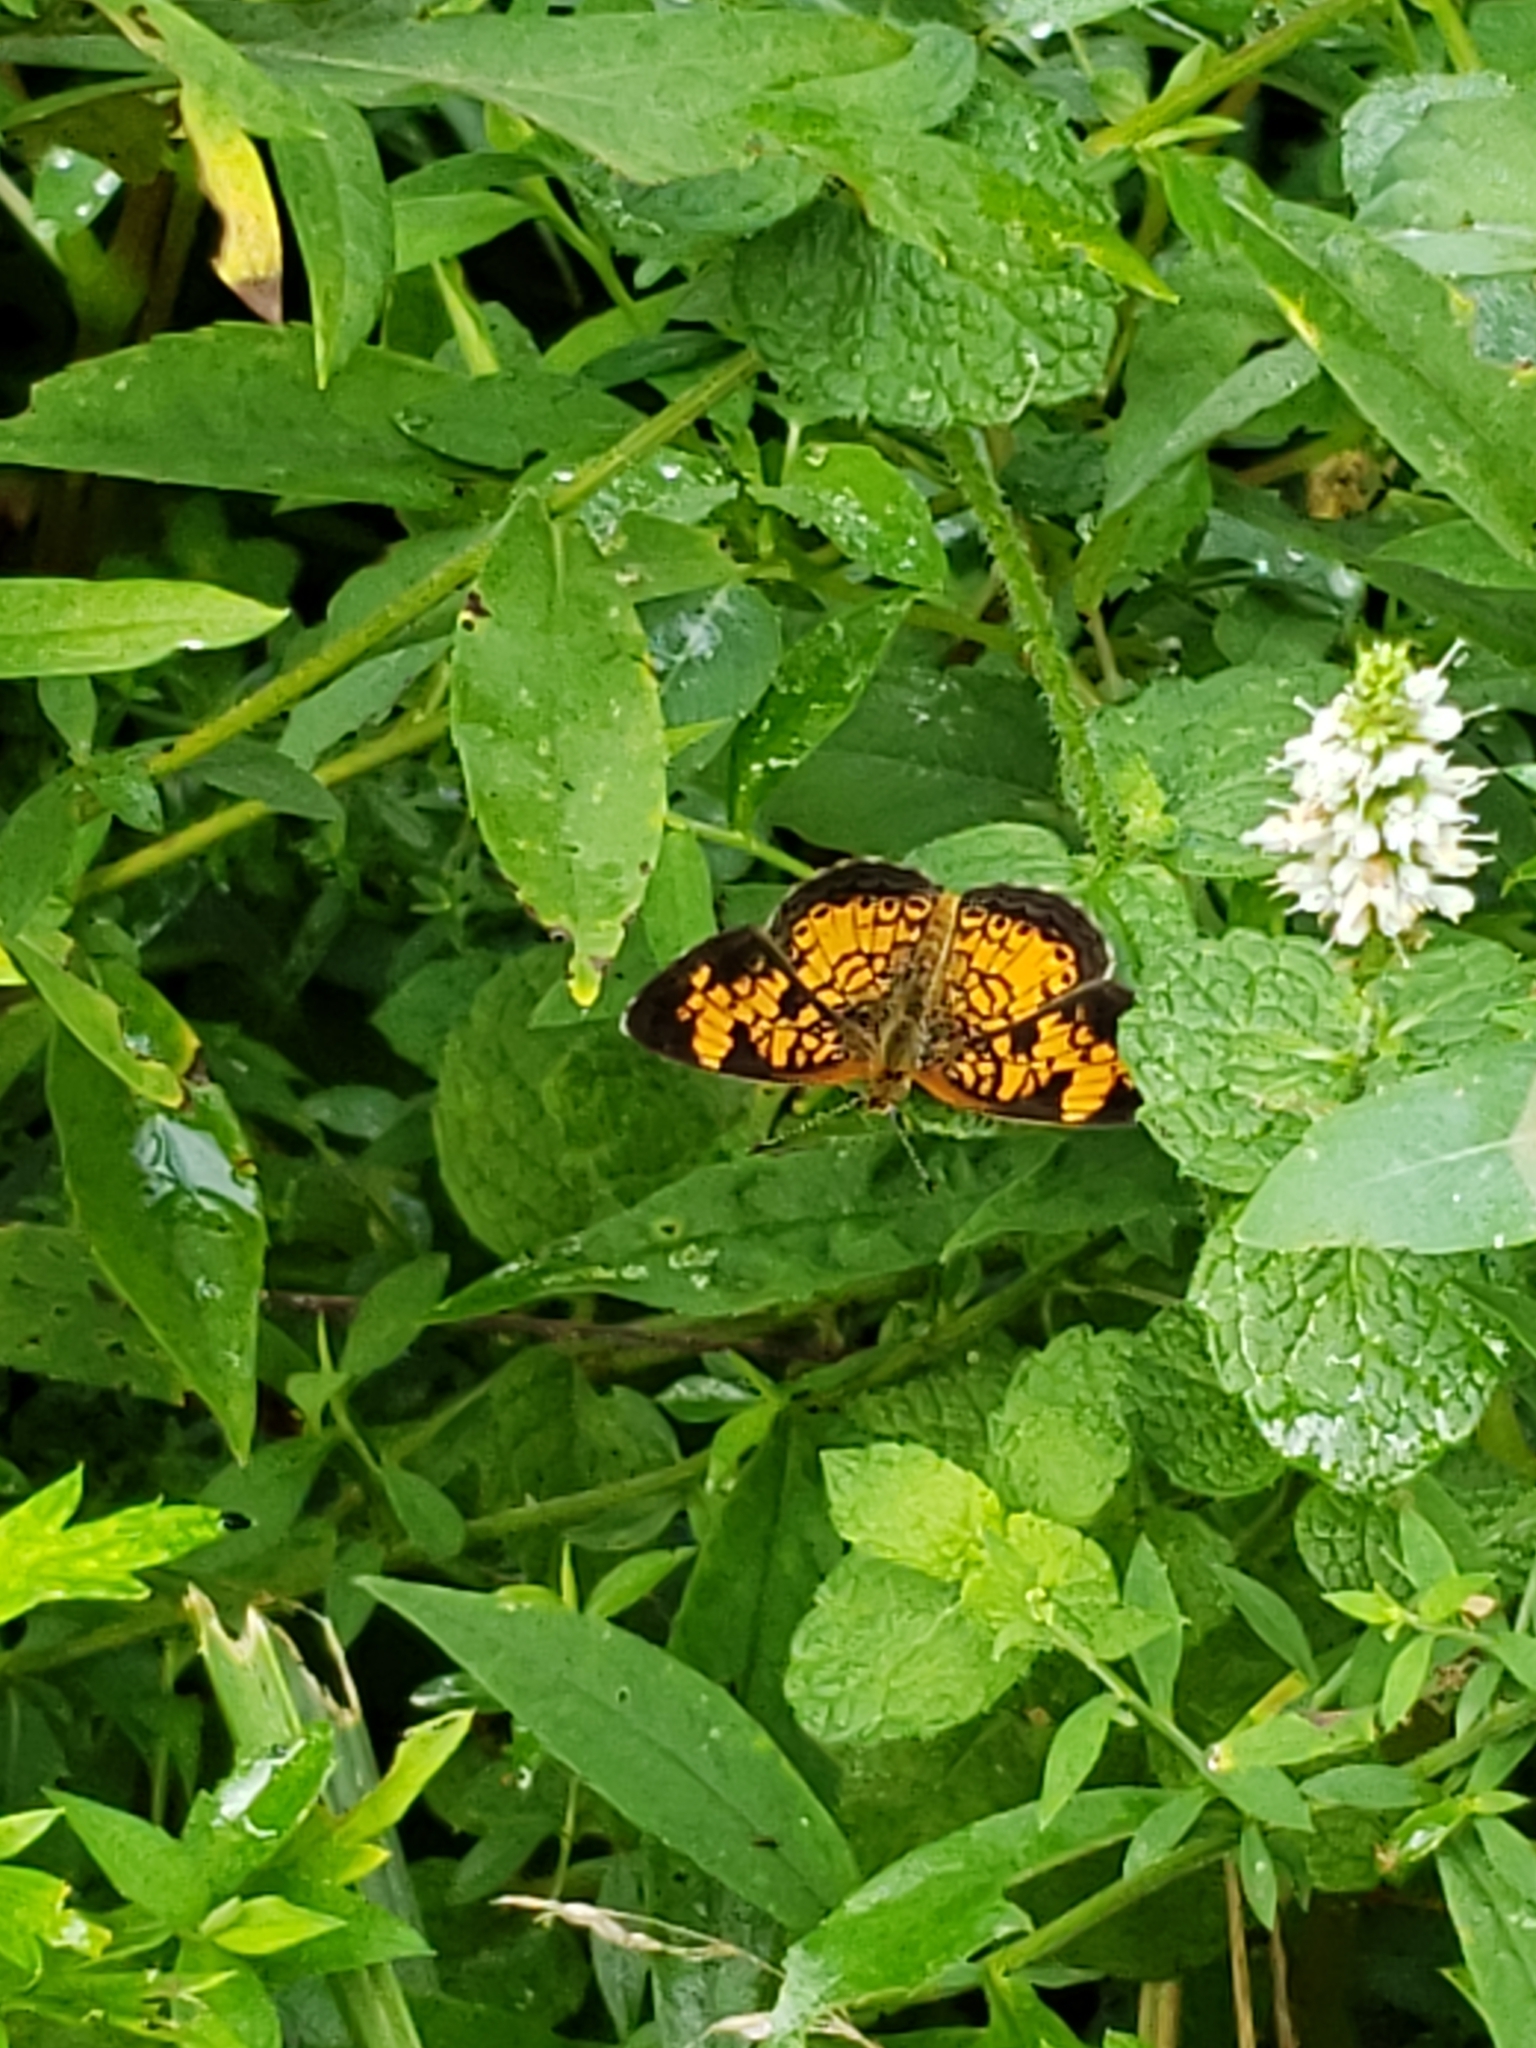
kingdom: Animalia
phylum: Arthropoda
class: Insecta
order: Lepidoptera
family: Nymphalidae
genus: Phyciodes
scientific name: Phyciodes tharos
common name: Pearl crescent
